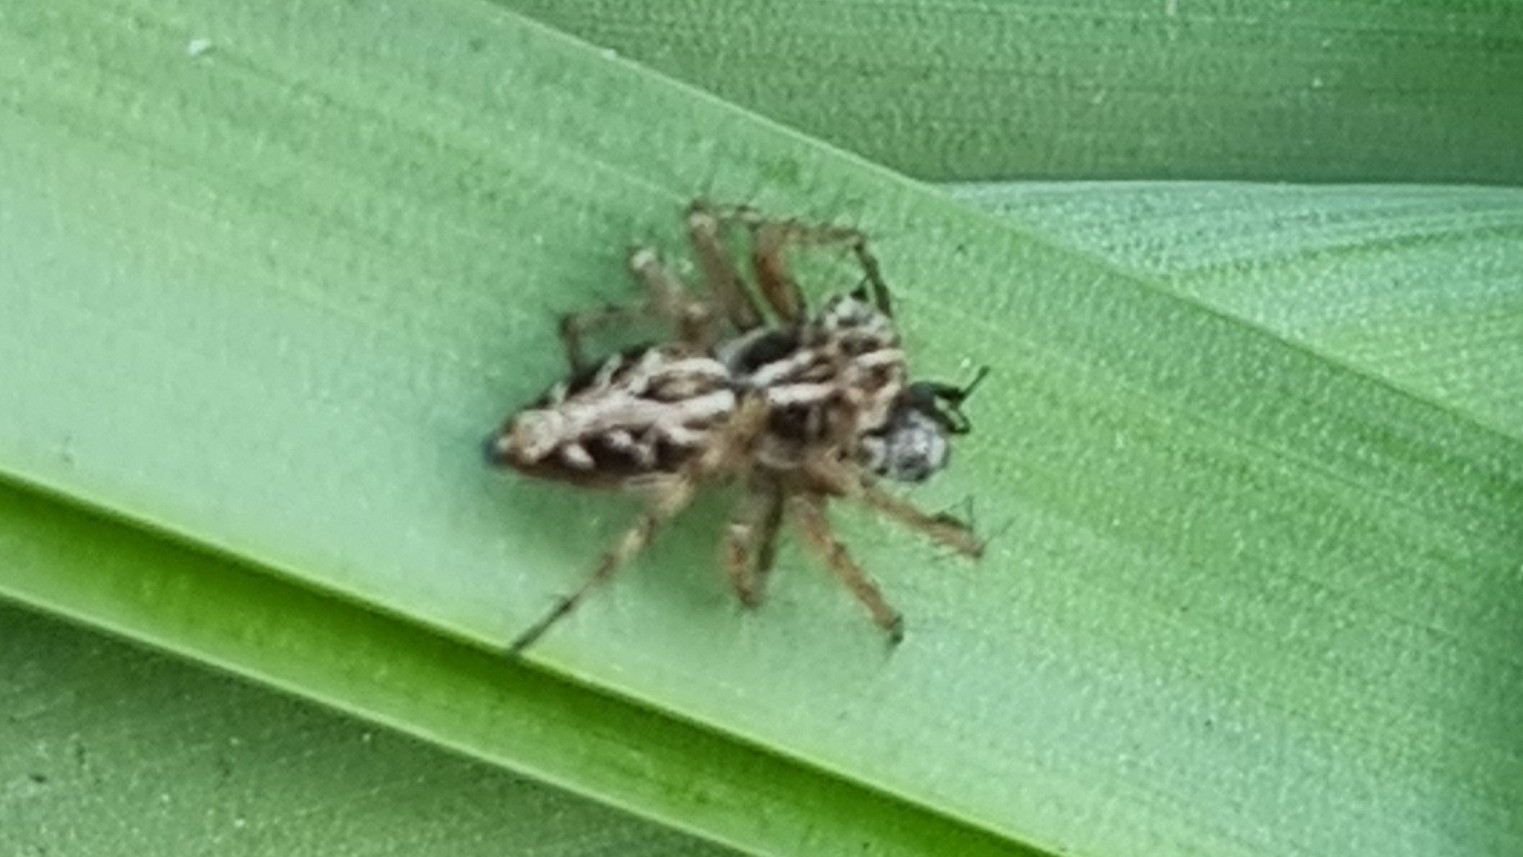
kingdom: Animalia
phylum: Arthropoda
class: Arachnida
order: Araneae
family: Oxyopidae
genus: Oxyopes
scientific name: Oxyopes heterophthalmus
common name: Lynx spider
